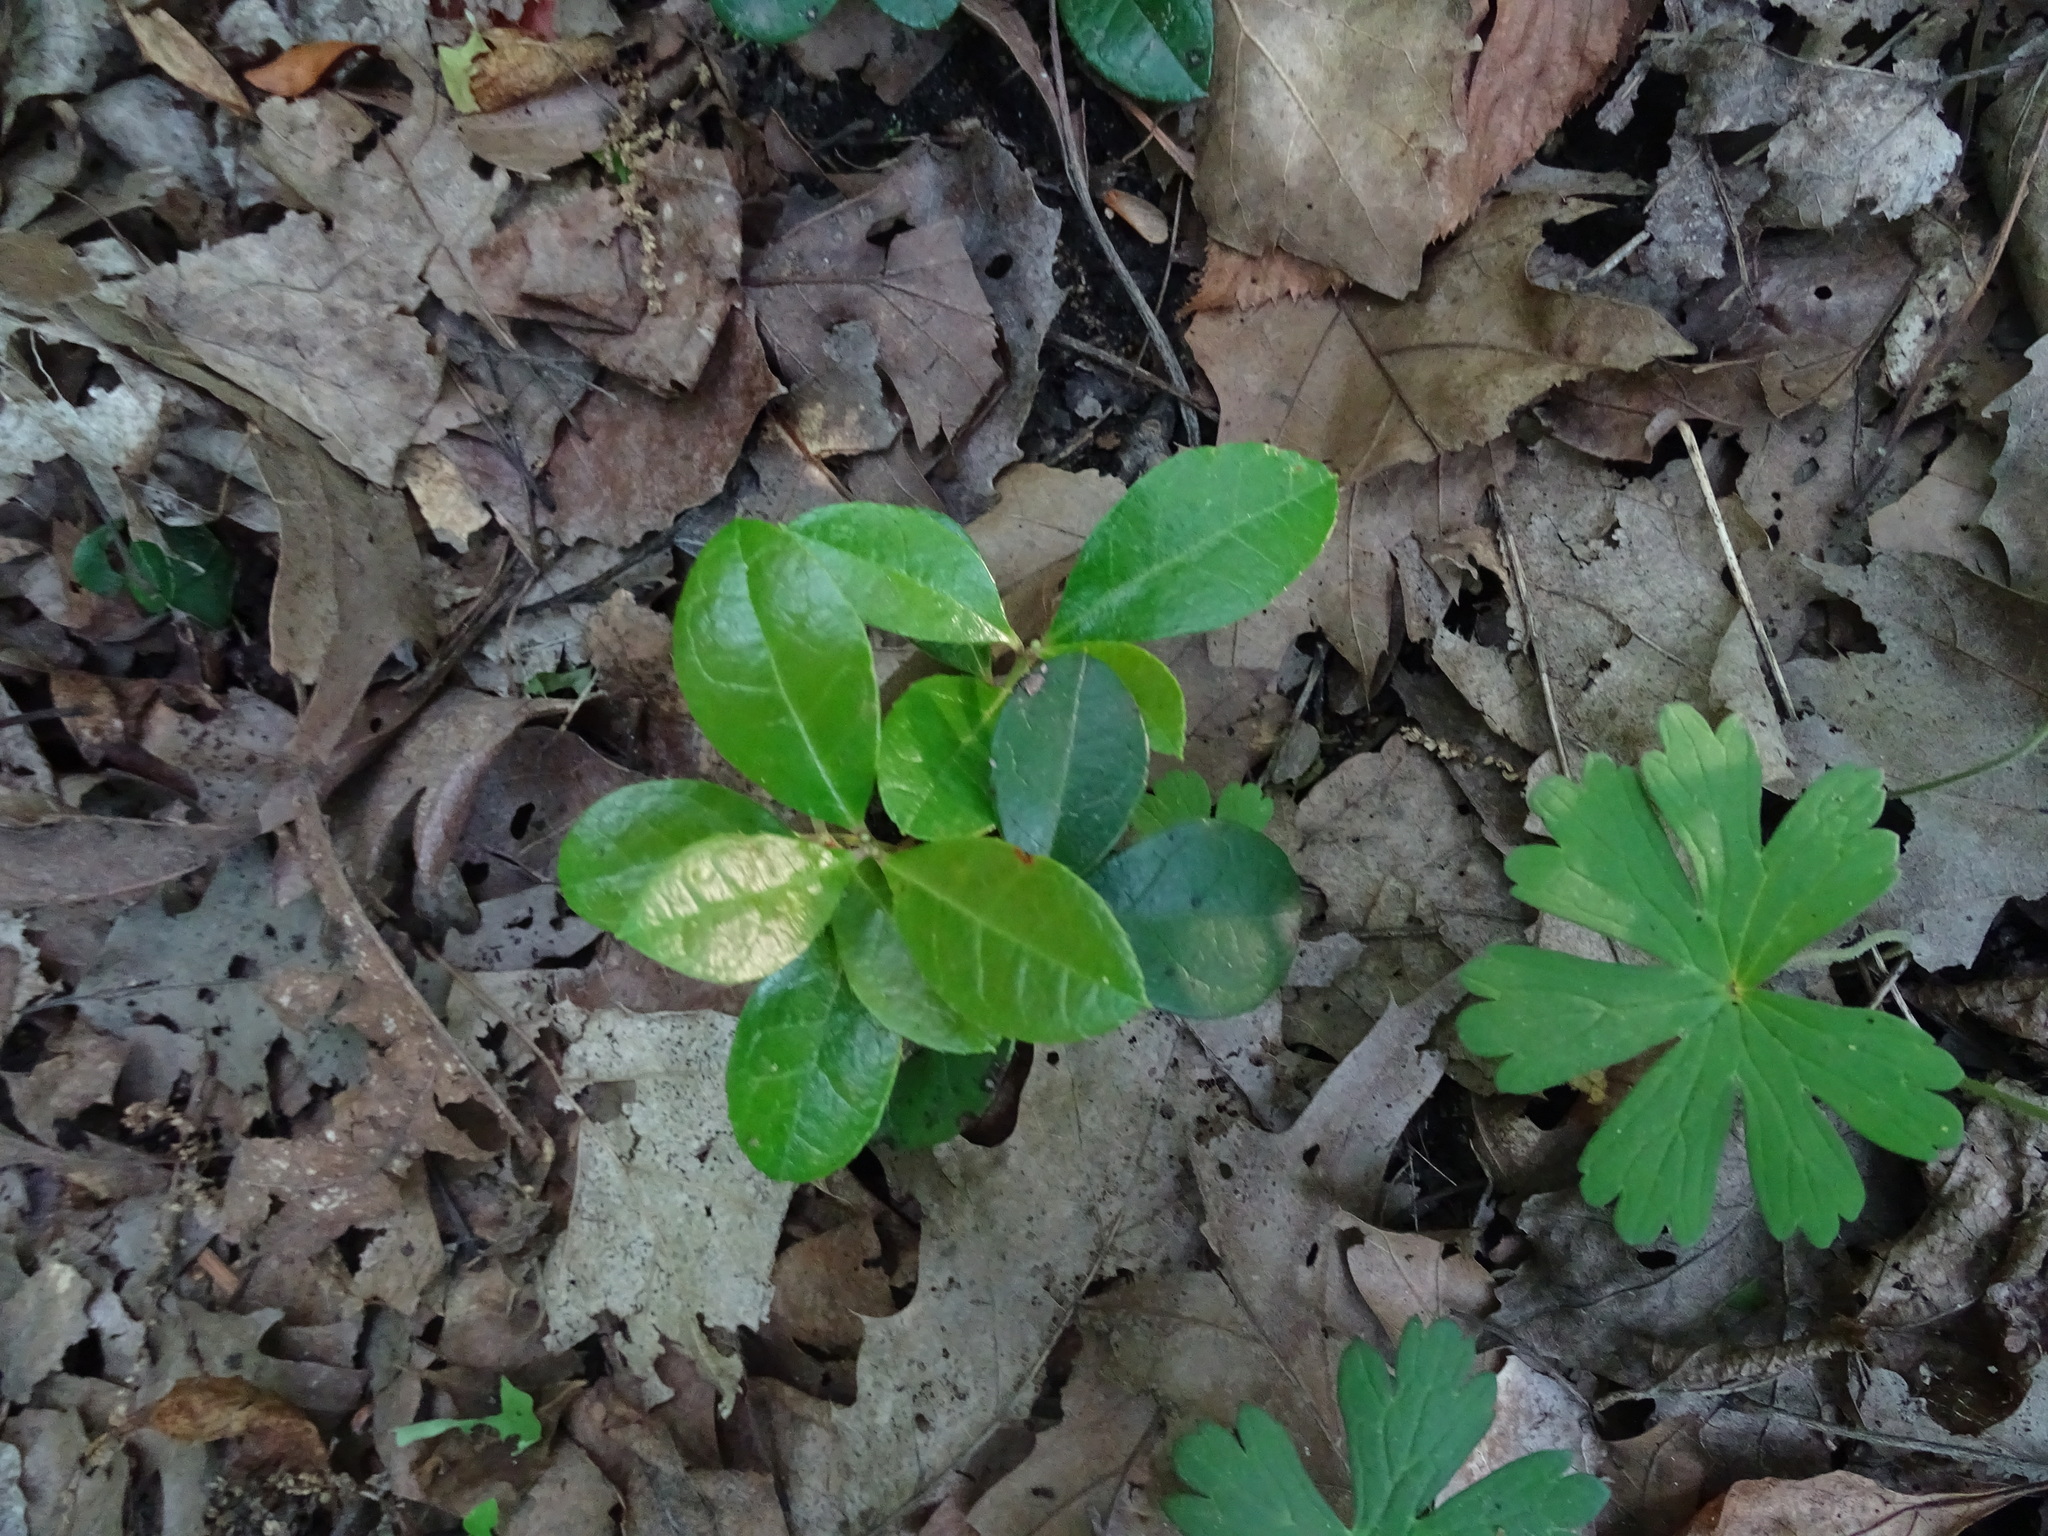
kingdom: Plantae
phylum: Tracheophyta
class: Magnoliopsida
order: Ericales
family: Ericaceae
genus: Gaultheria
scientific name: Gaultheria procumbens
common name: Checkerberry
